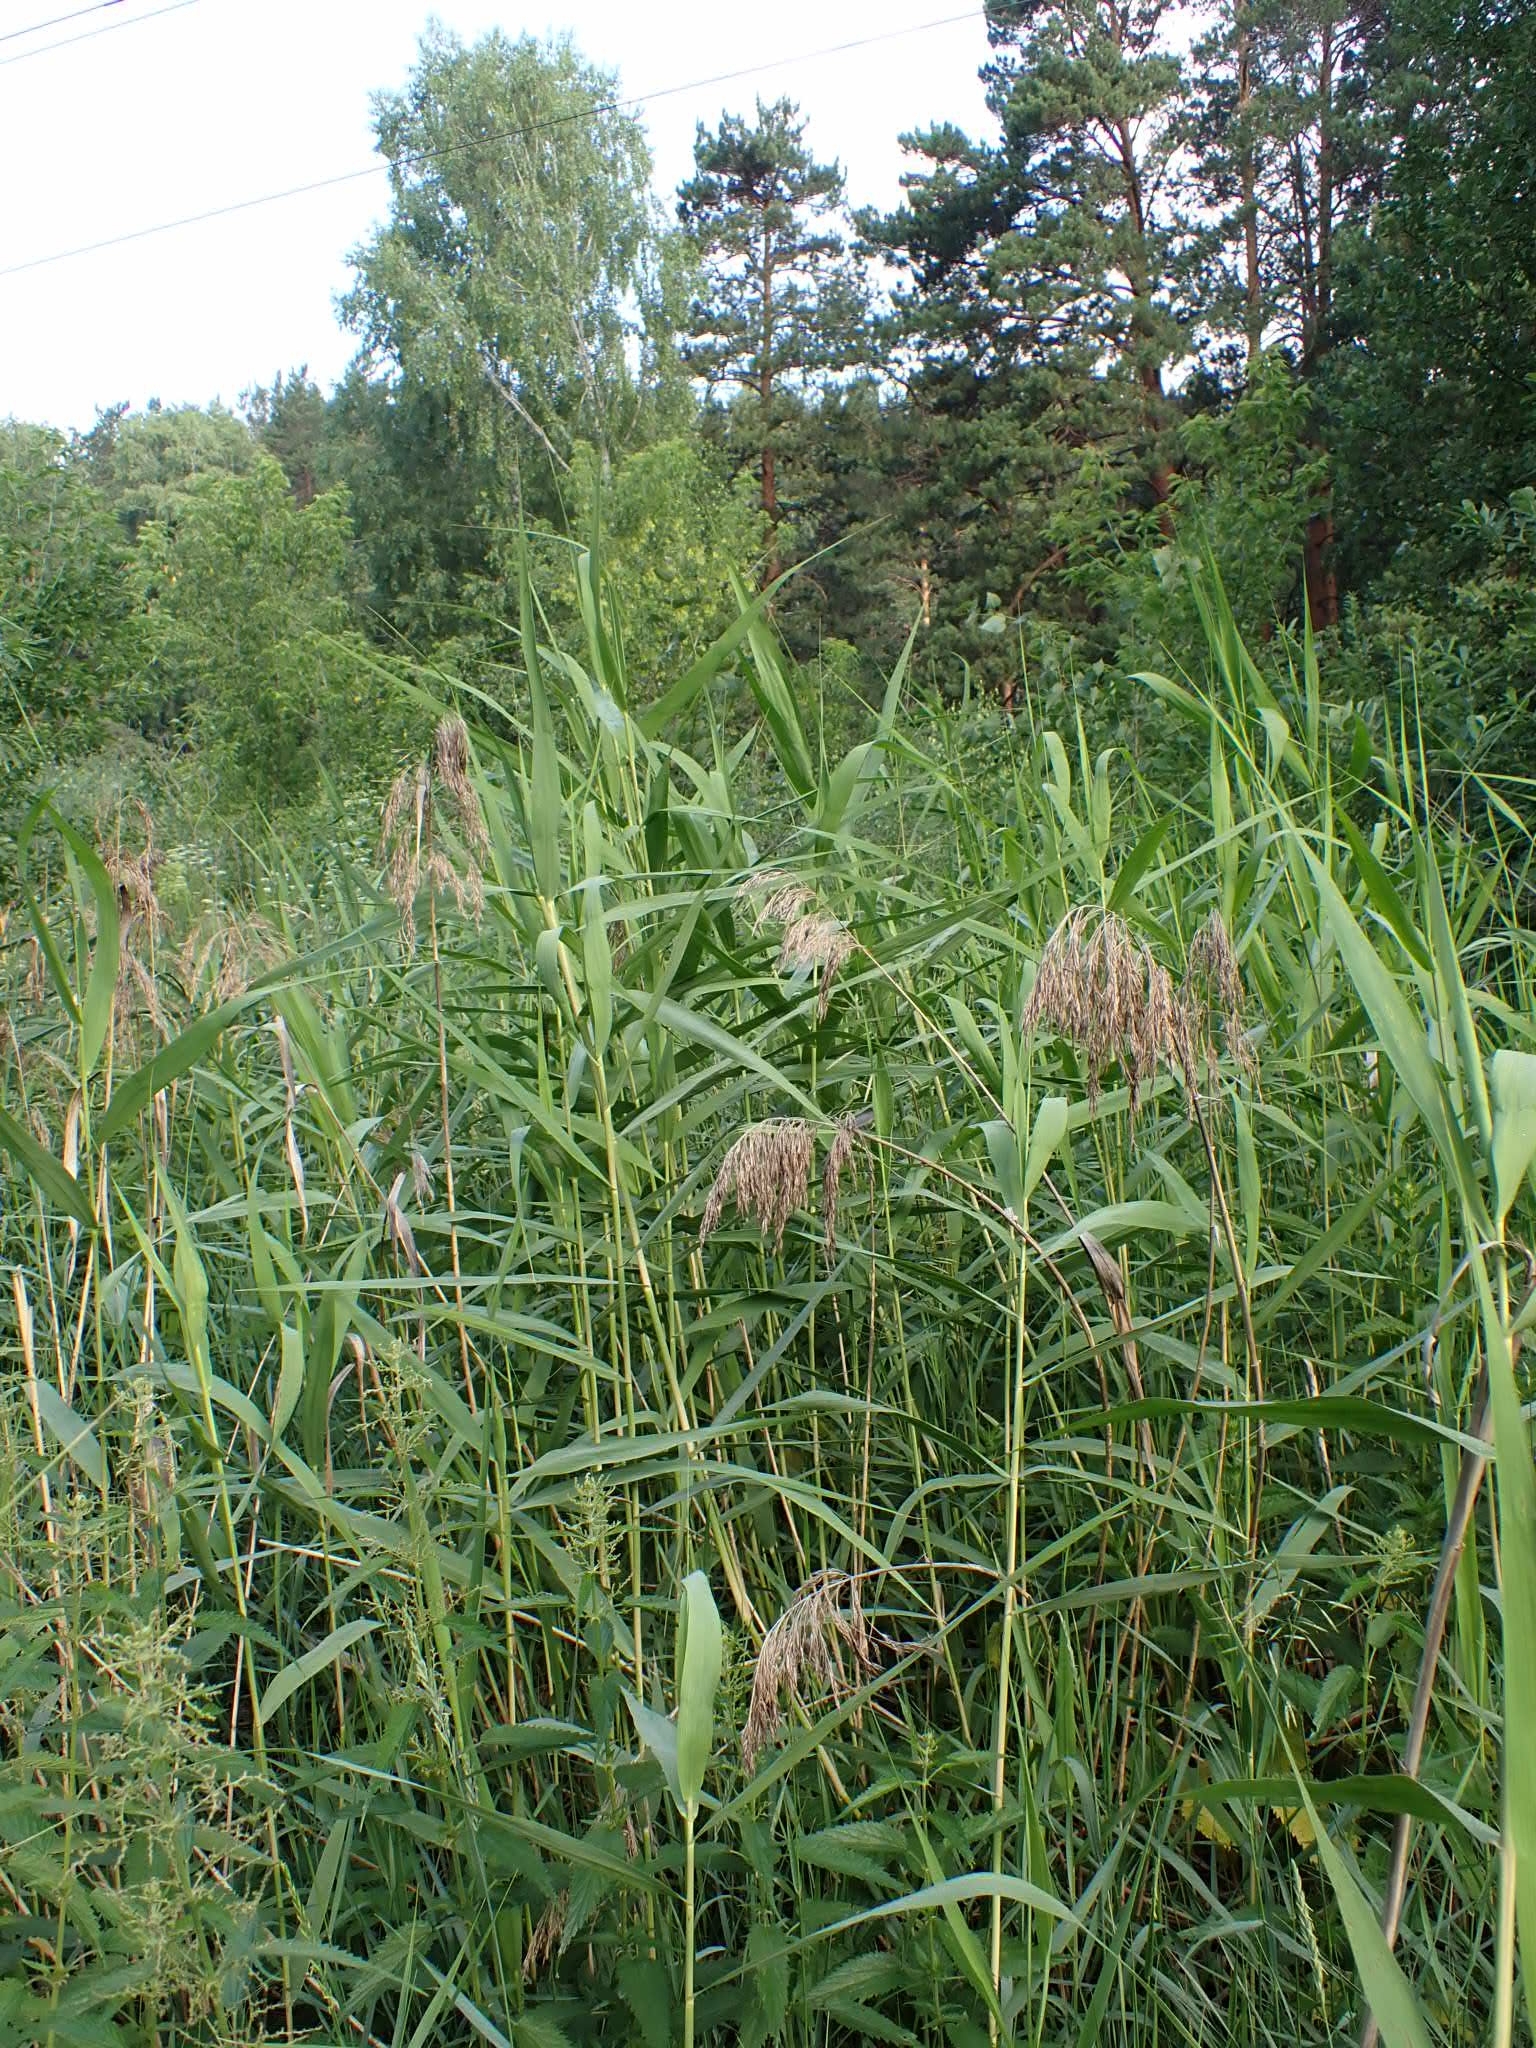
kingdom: Plantae
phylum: Tracheophyta
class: Liliopsida
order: Poales
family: Poaceae
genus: Phragmites
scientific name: Phragmites australis
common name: Common reed
